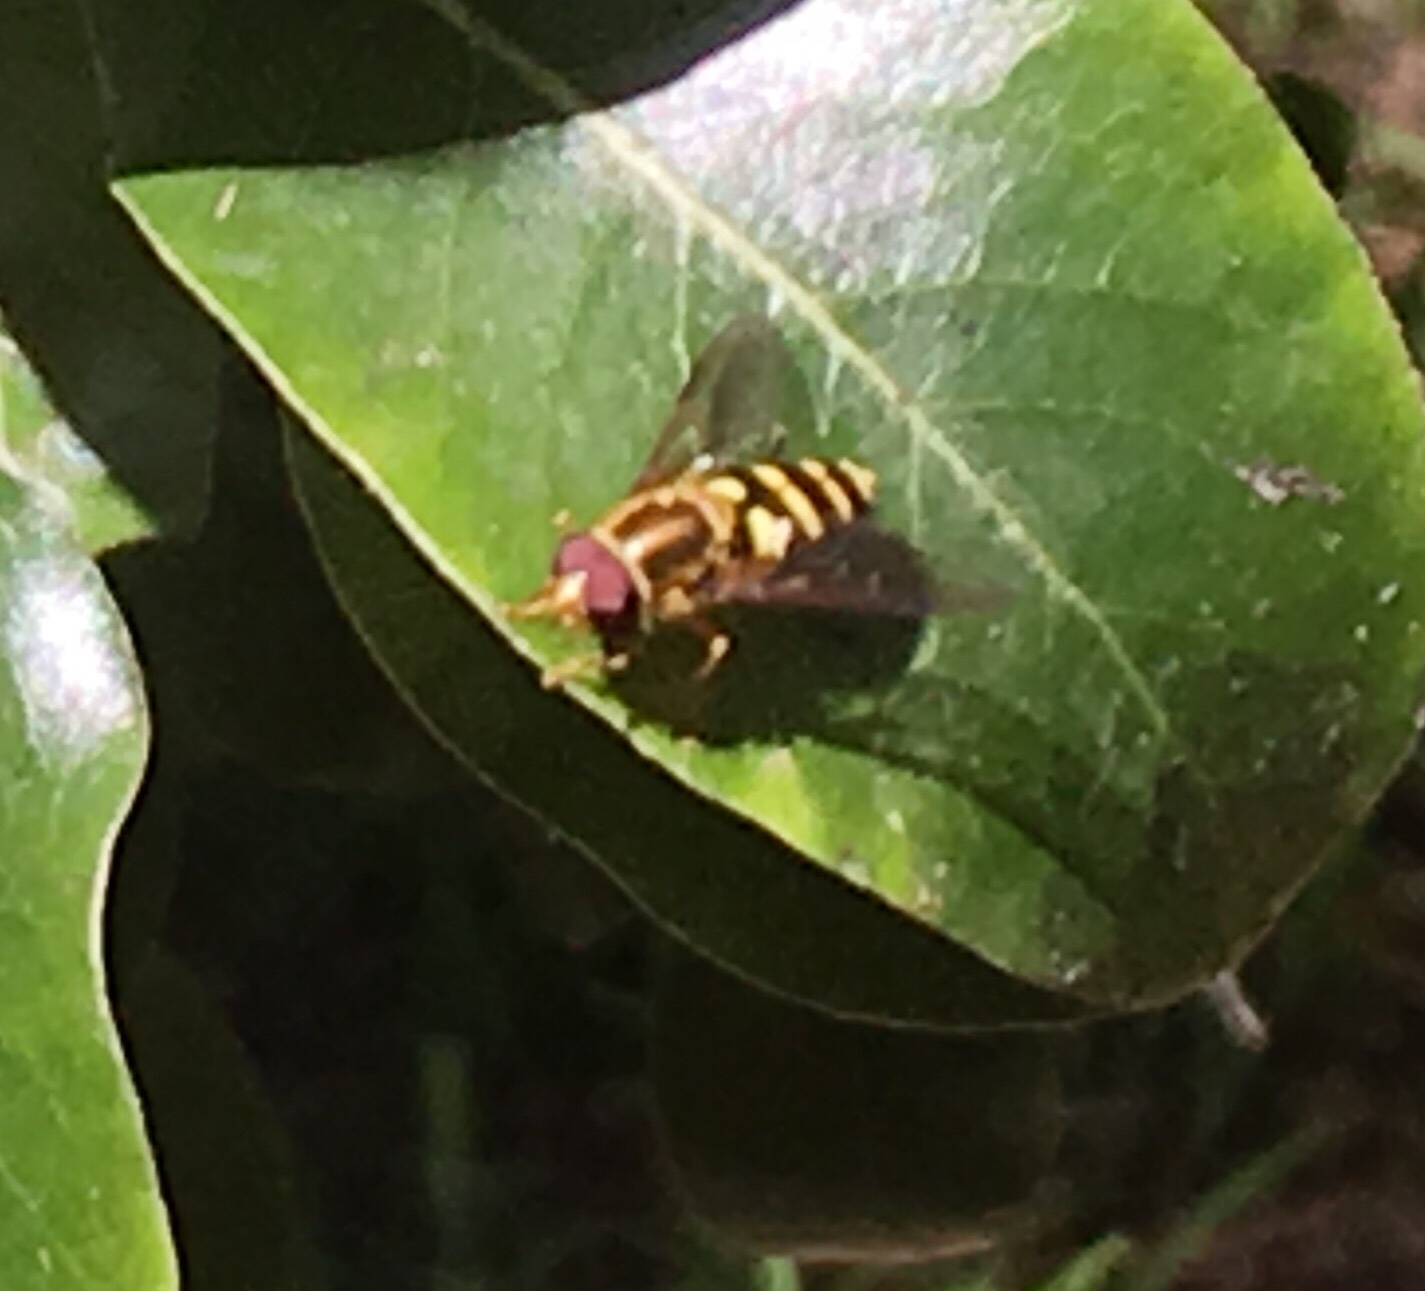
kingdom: Animalia
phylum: Arthropoda
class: Insecta
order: Diptera
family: Syrphidae
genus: Syrphus
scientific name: Syrphus opinator
